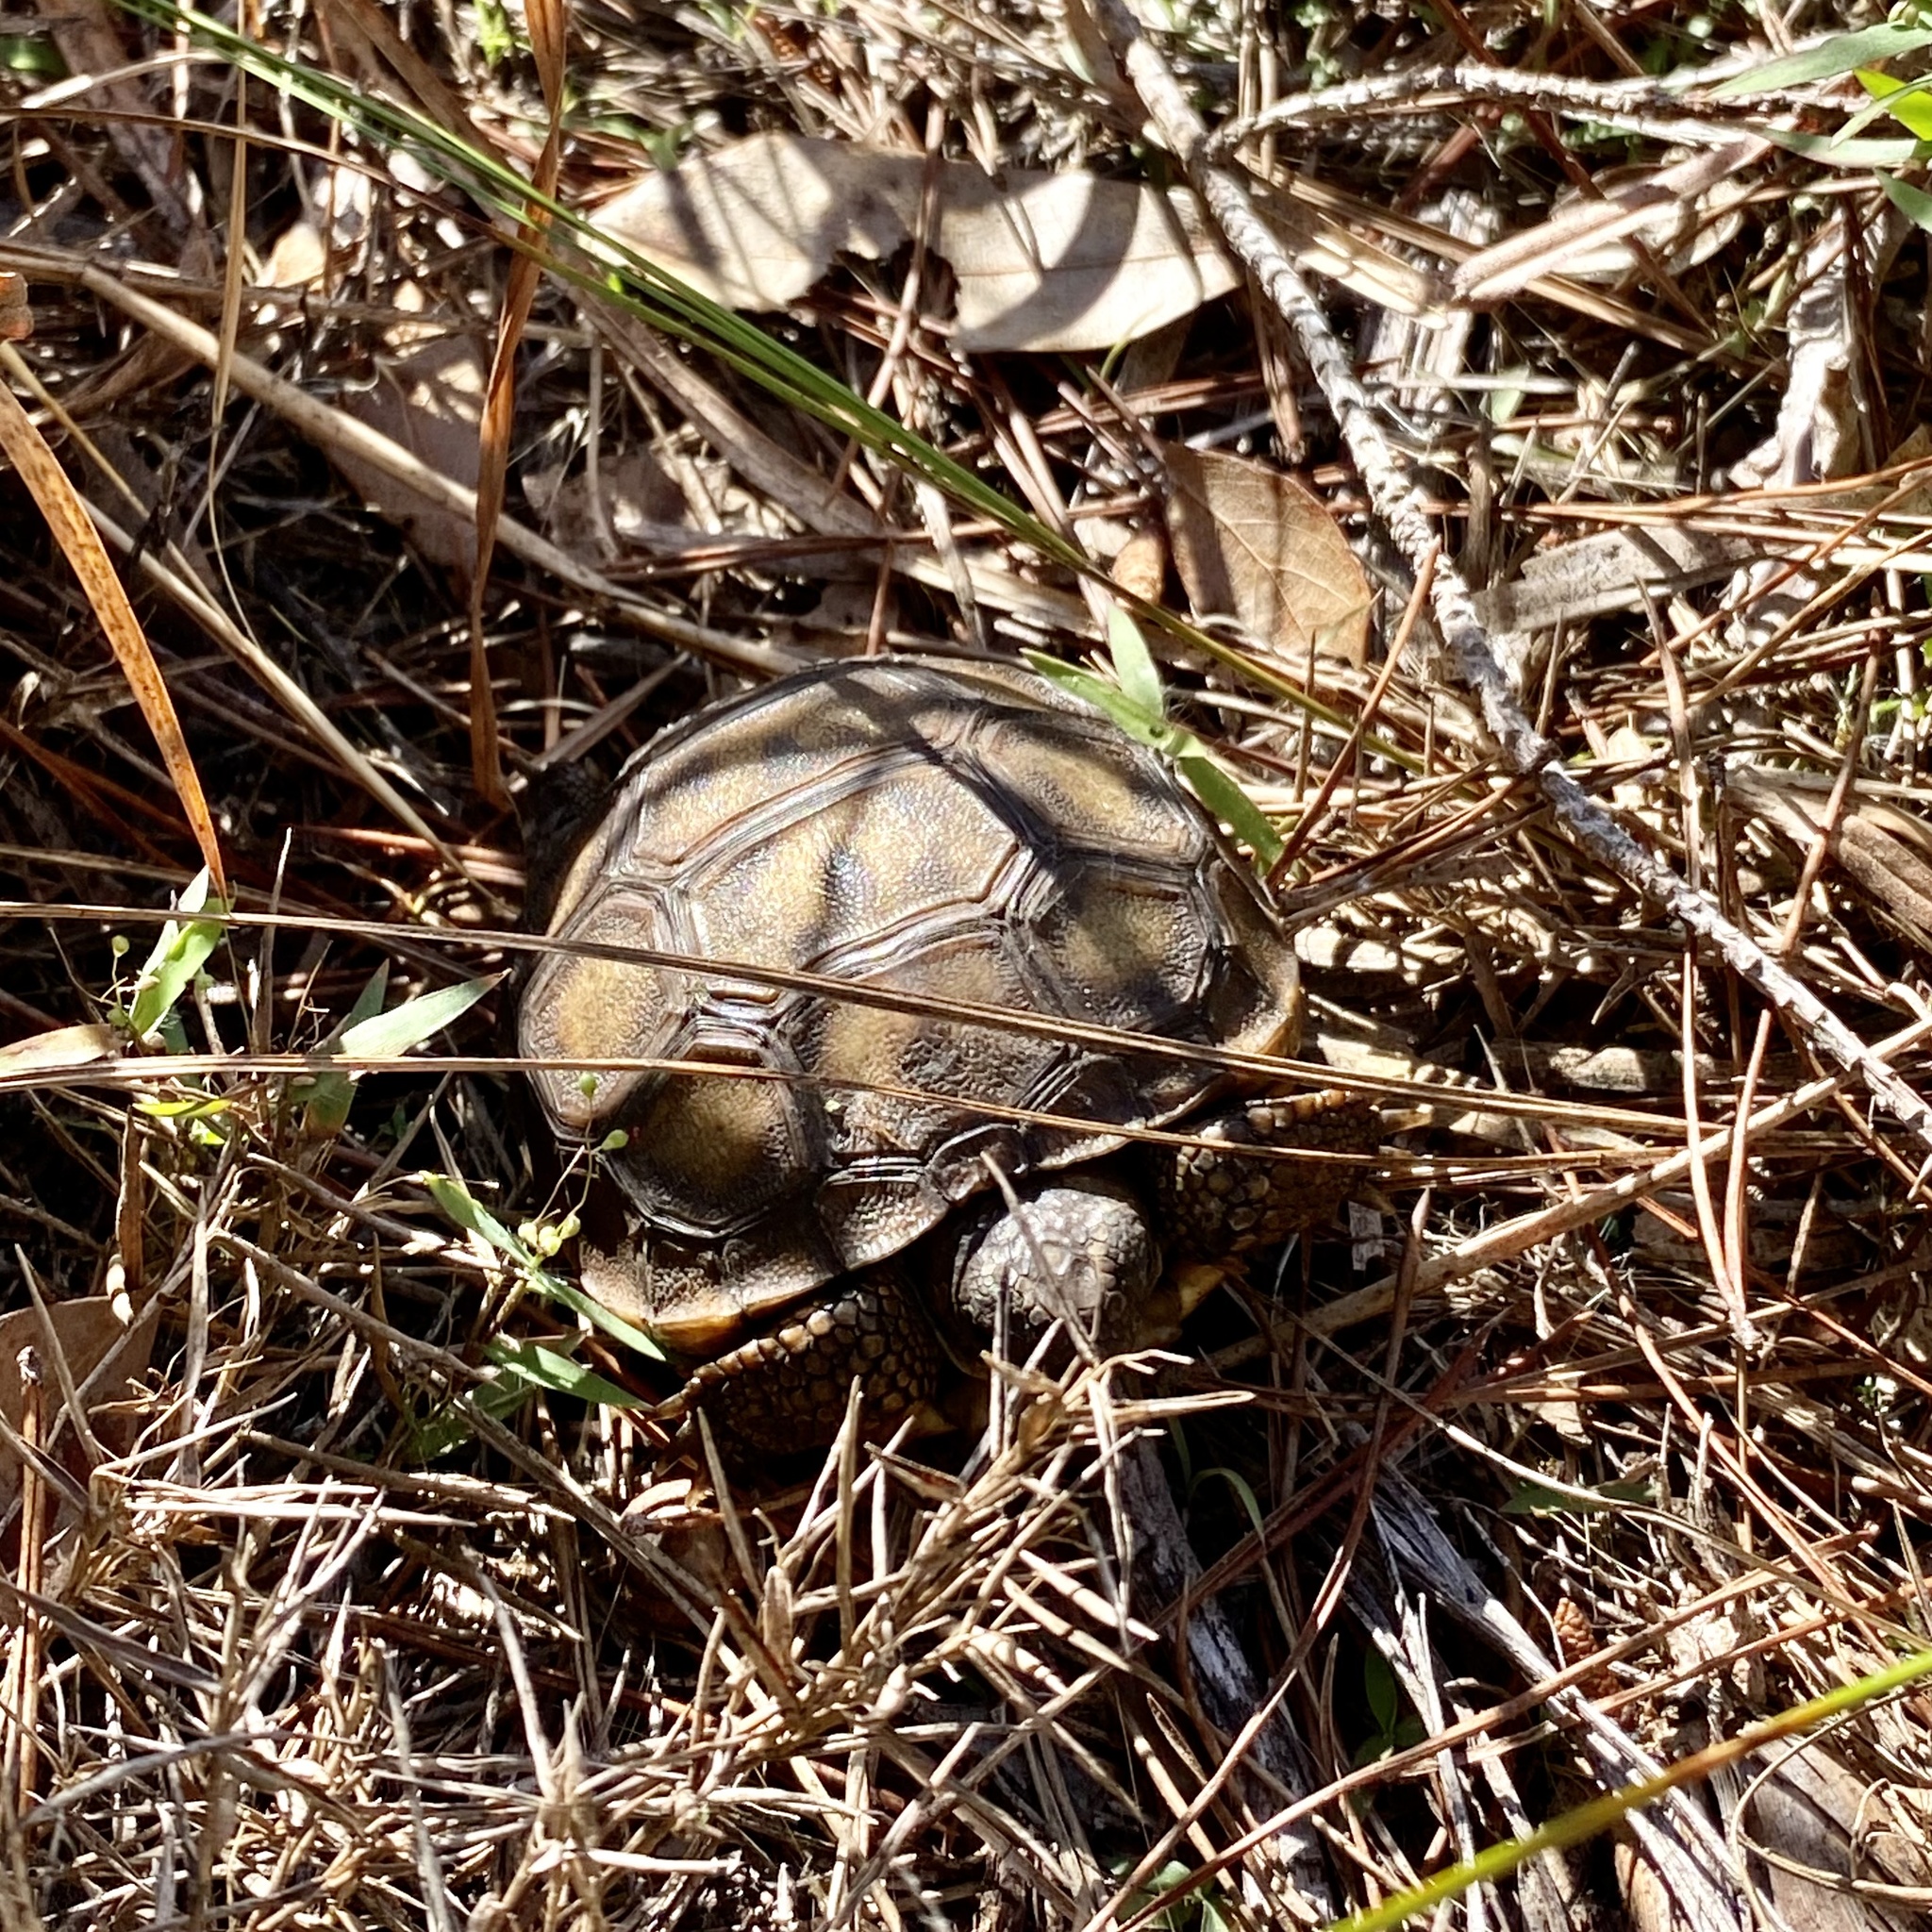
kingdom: Animalia
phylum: Chordata
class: Testudines
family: Testudinidae
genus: Gopherus
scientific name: Gopherus polyphemus
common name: Florida gopher tortoise
